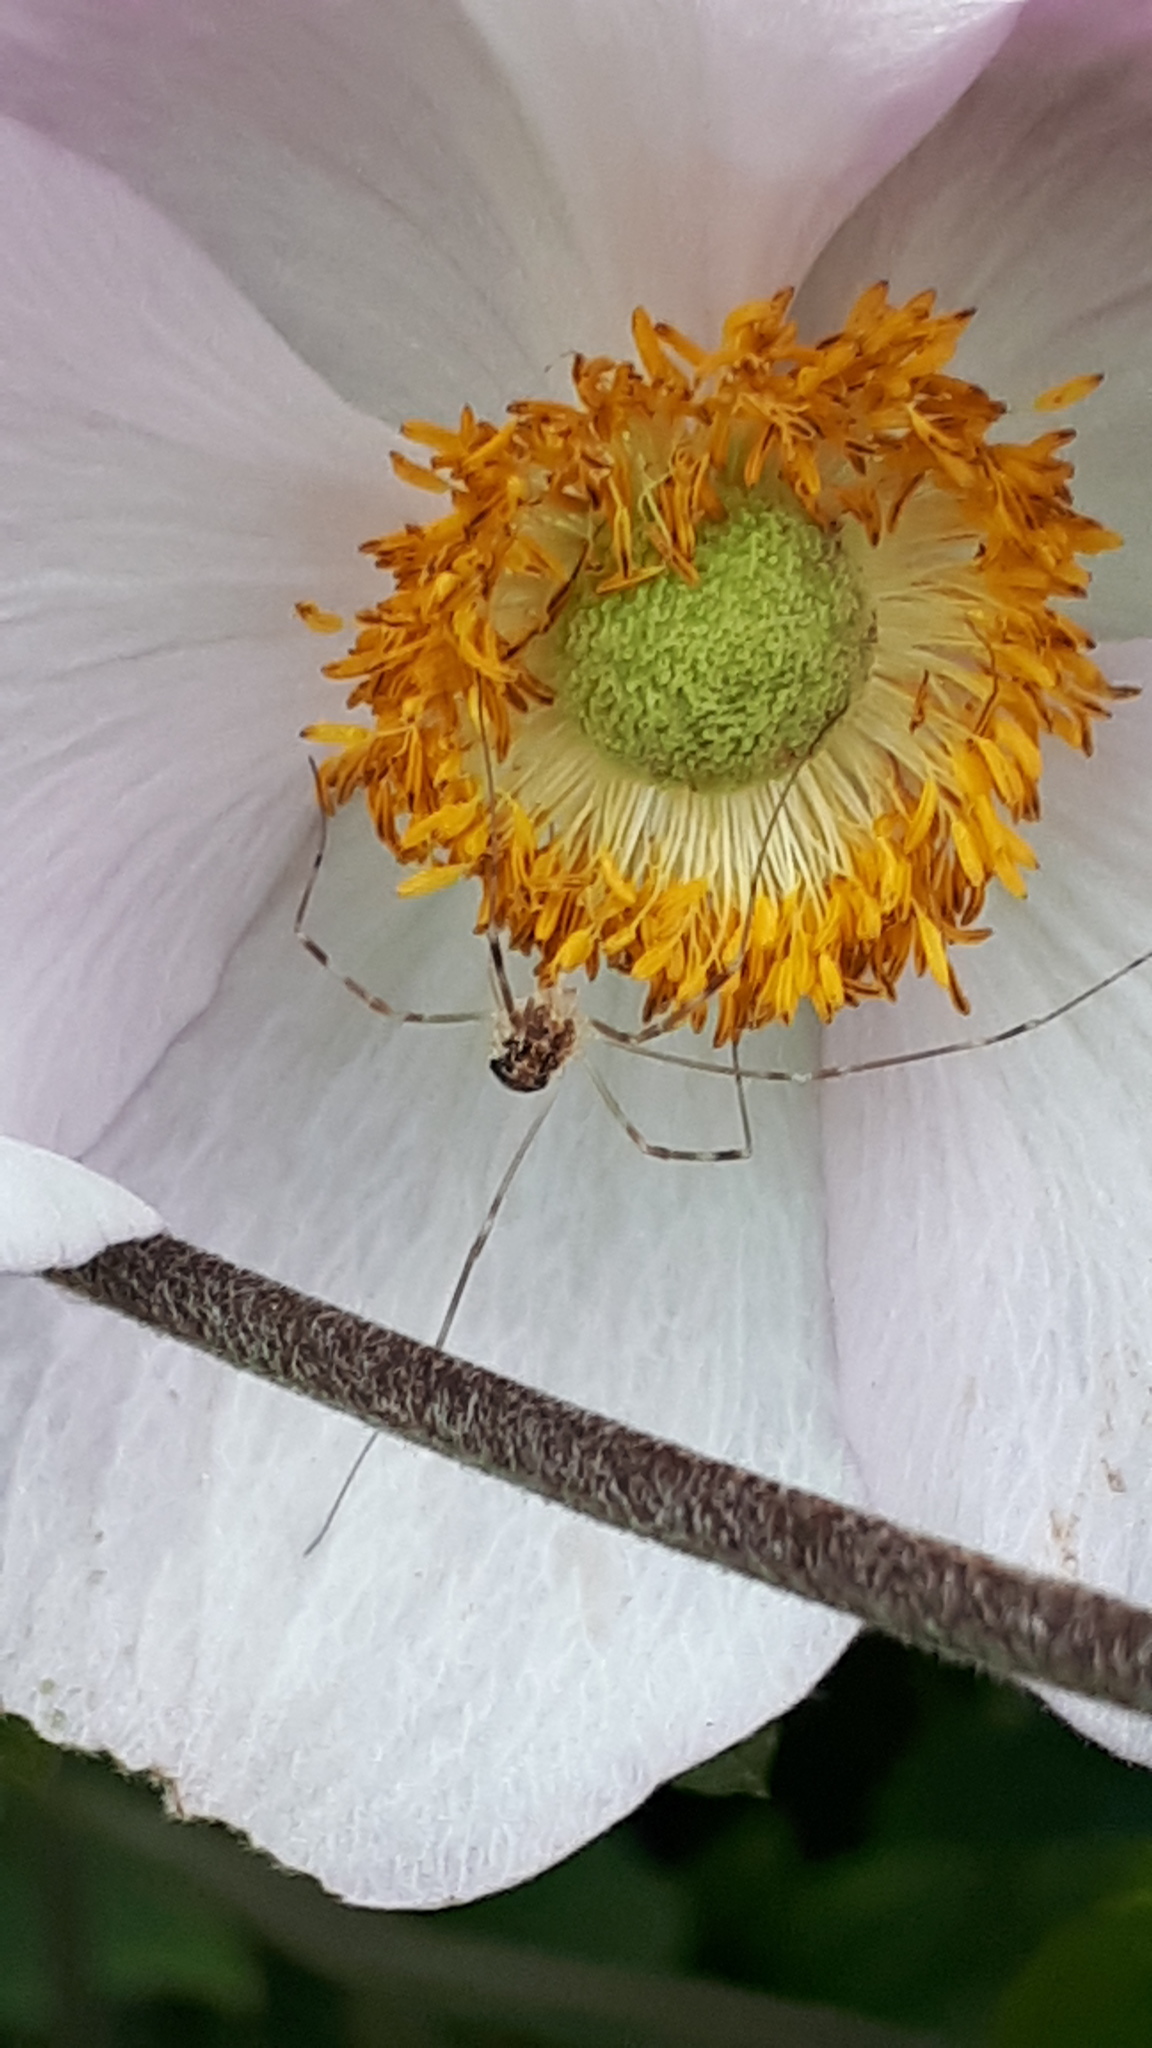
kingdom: Animalia
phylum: Arthropoda
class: Arachnida
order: Opiliones
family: Phalangiidae
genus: Opilio
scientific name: Opilio canestrinii
